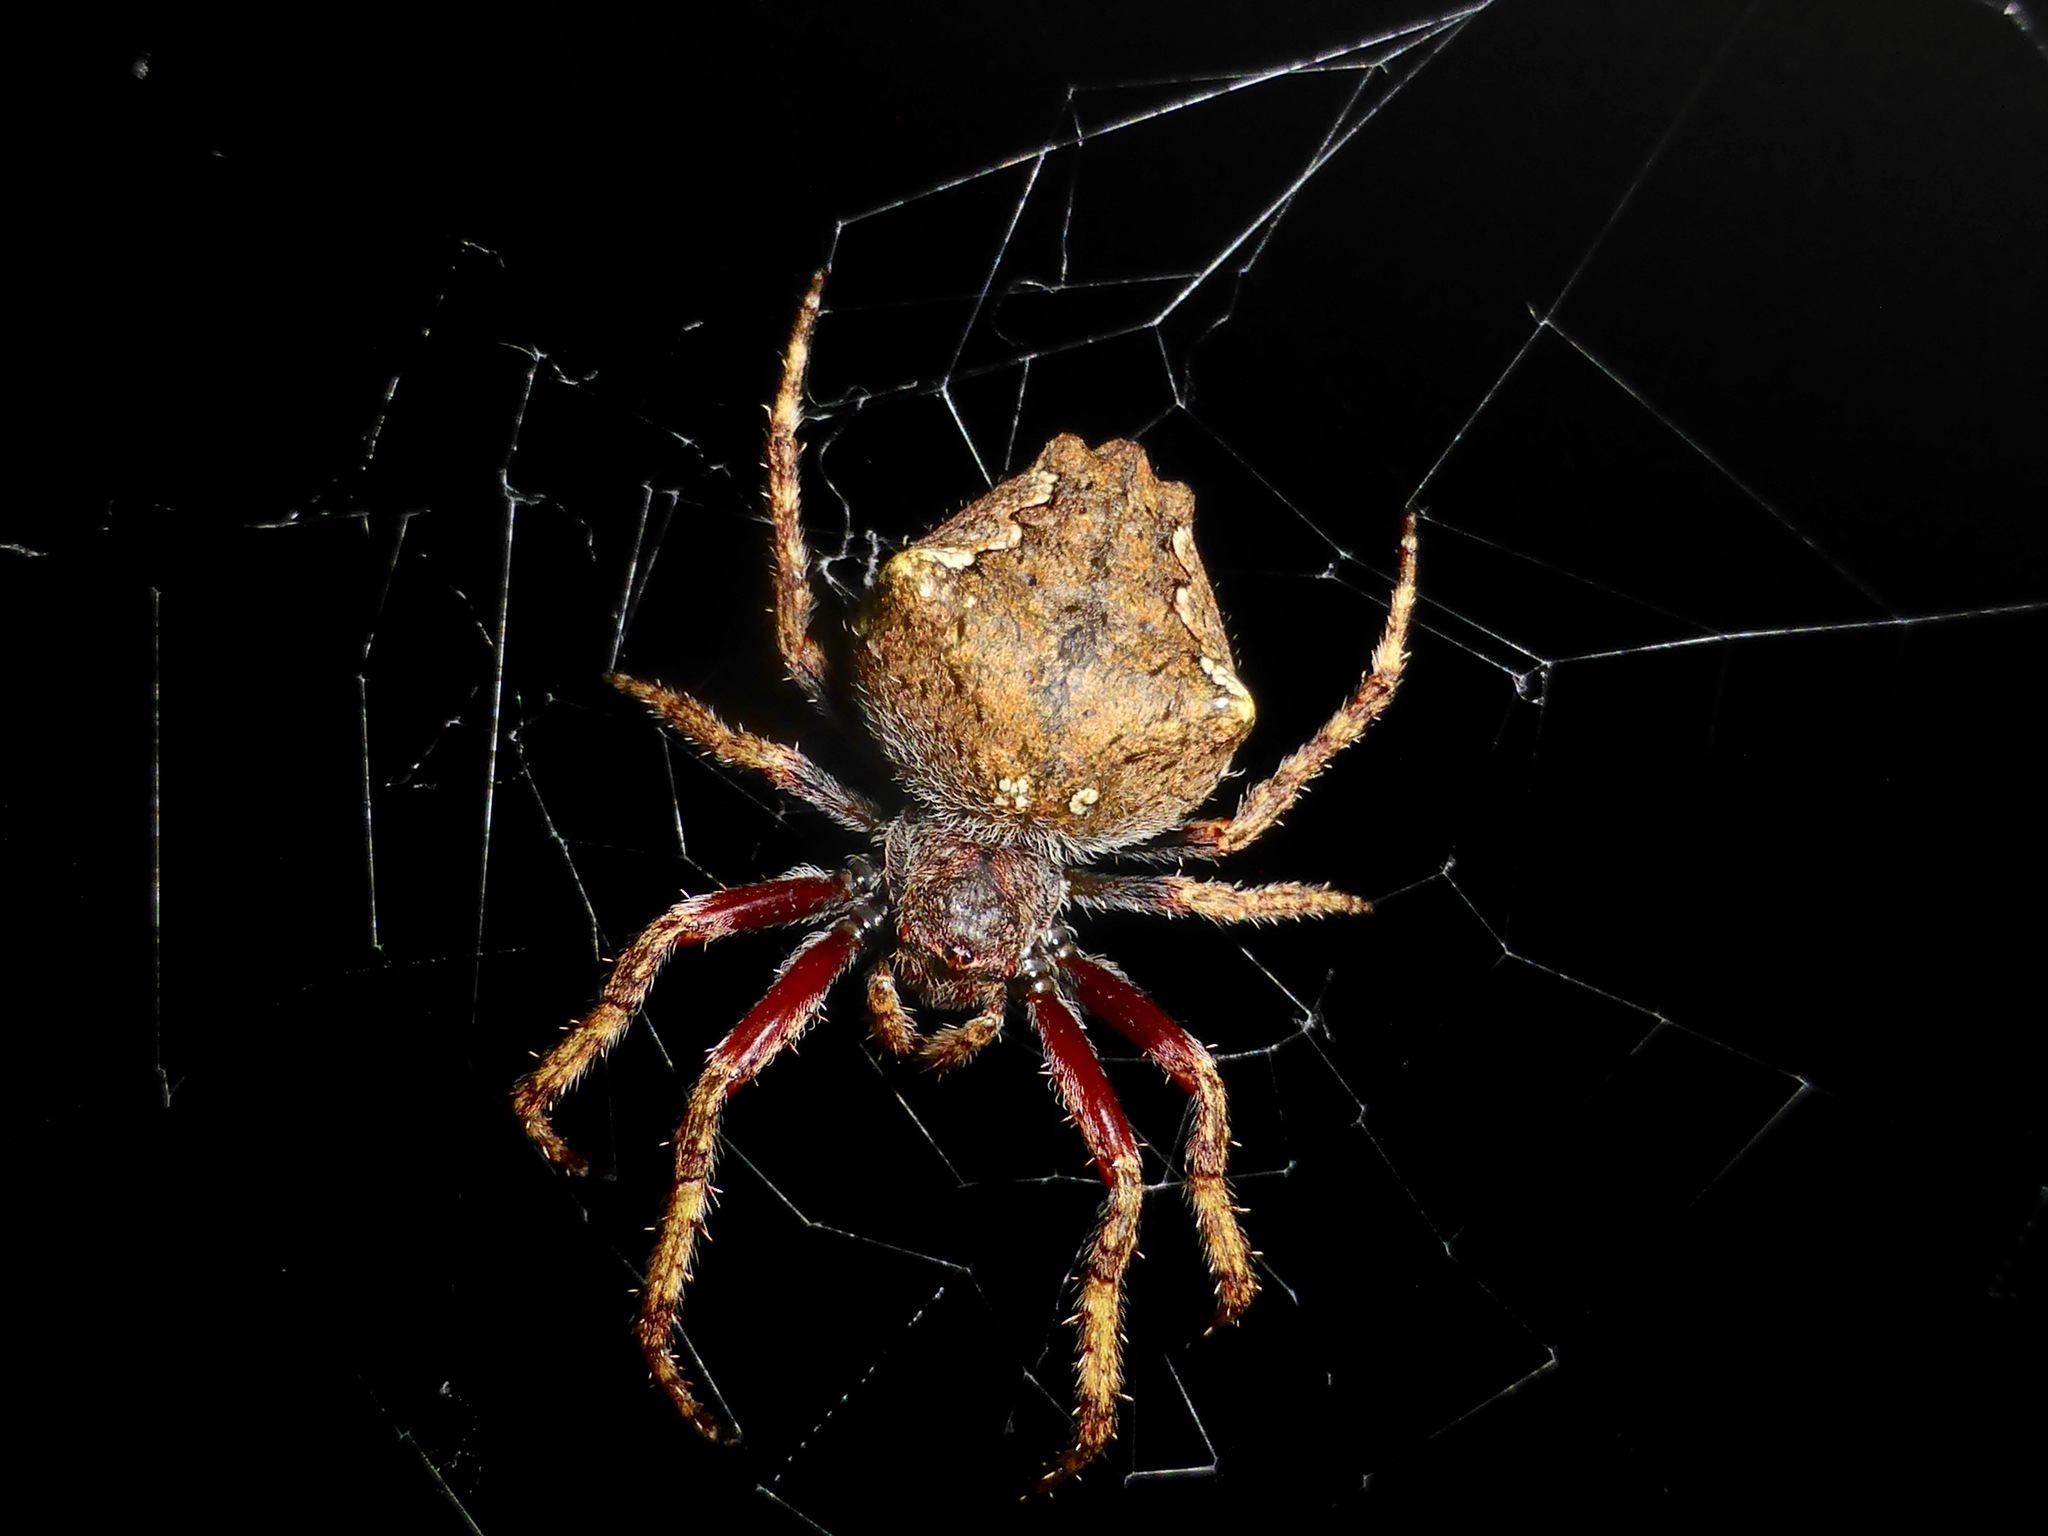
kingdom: Animalia
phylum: Arthropoda
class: Arachnida
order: Araneae
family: Araneidae
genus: Eriophora
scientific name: Eriophora pustulosa
